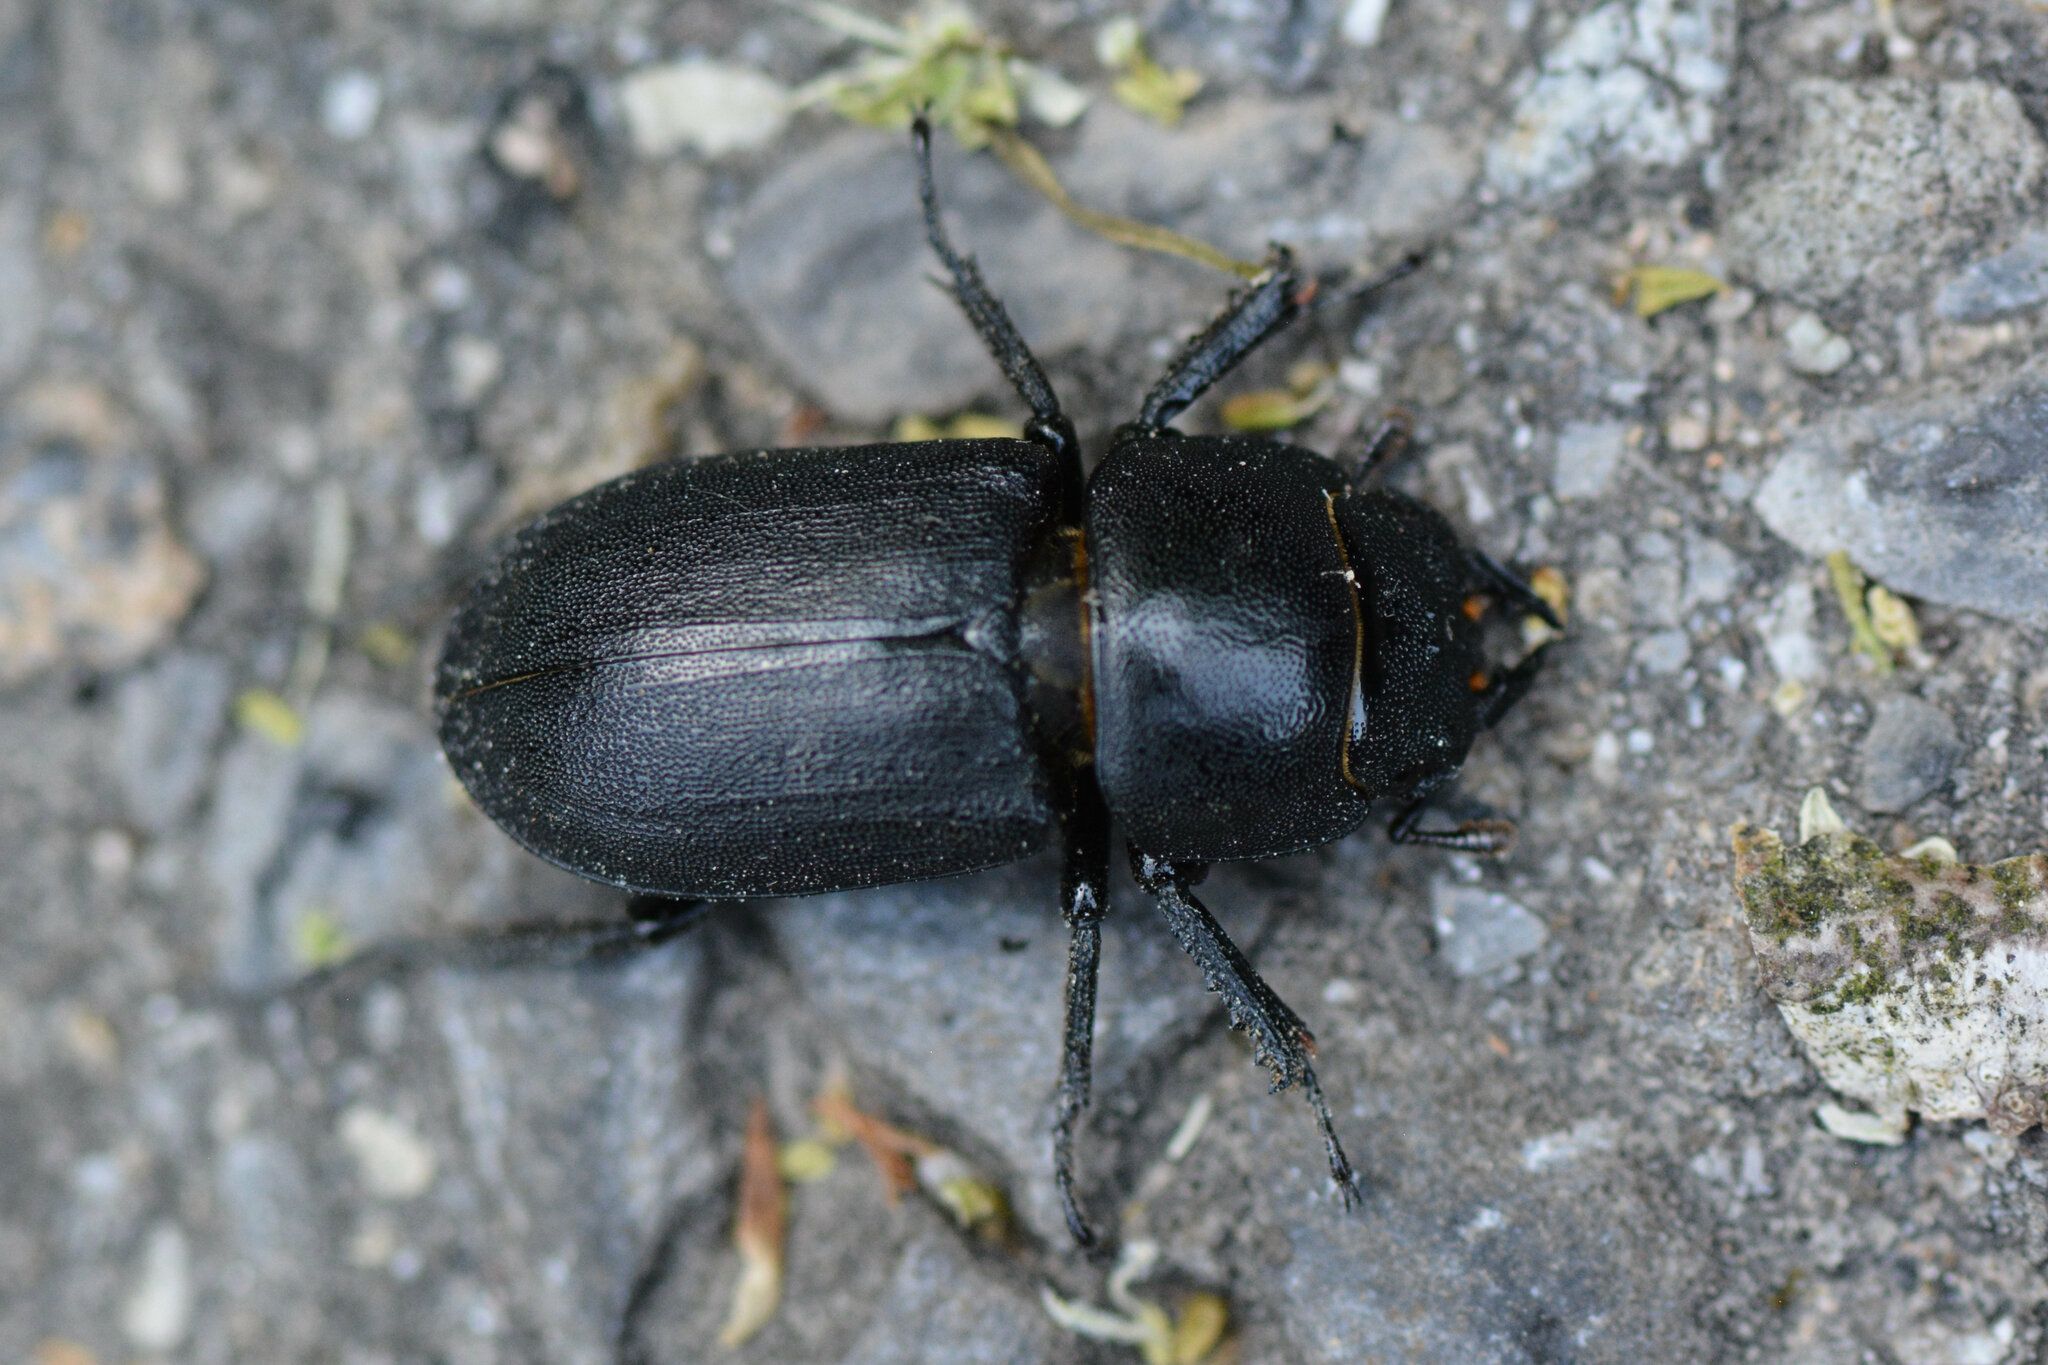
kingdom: Animalia
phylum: Arthropoda
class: Insecta
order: Coleoptera
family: Lucanidae
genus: Dorcus
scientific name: Dorcus parallelipipedus
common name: Lesser stag beetle
